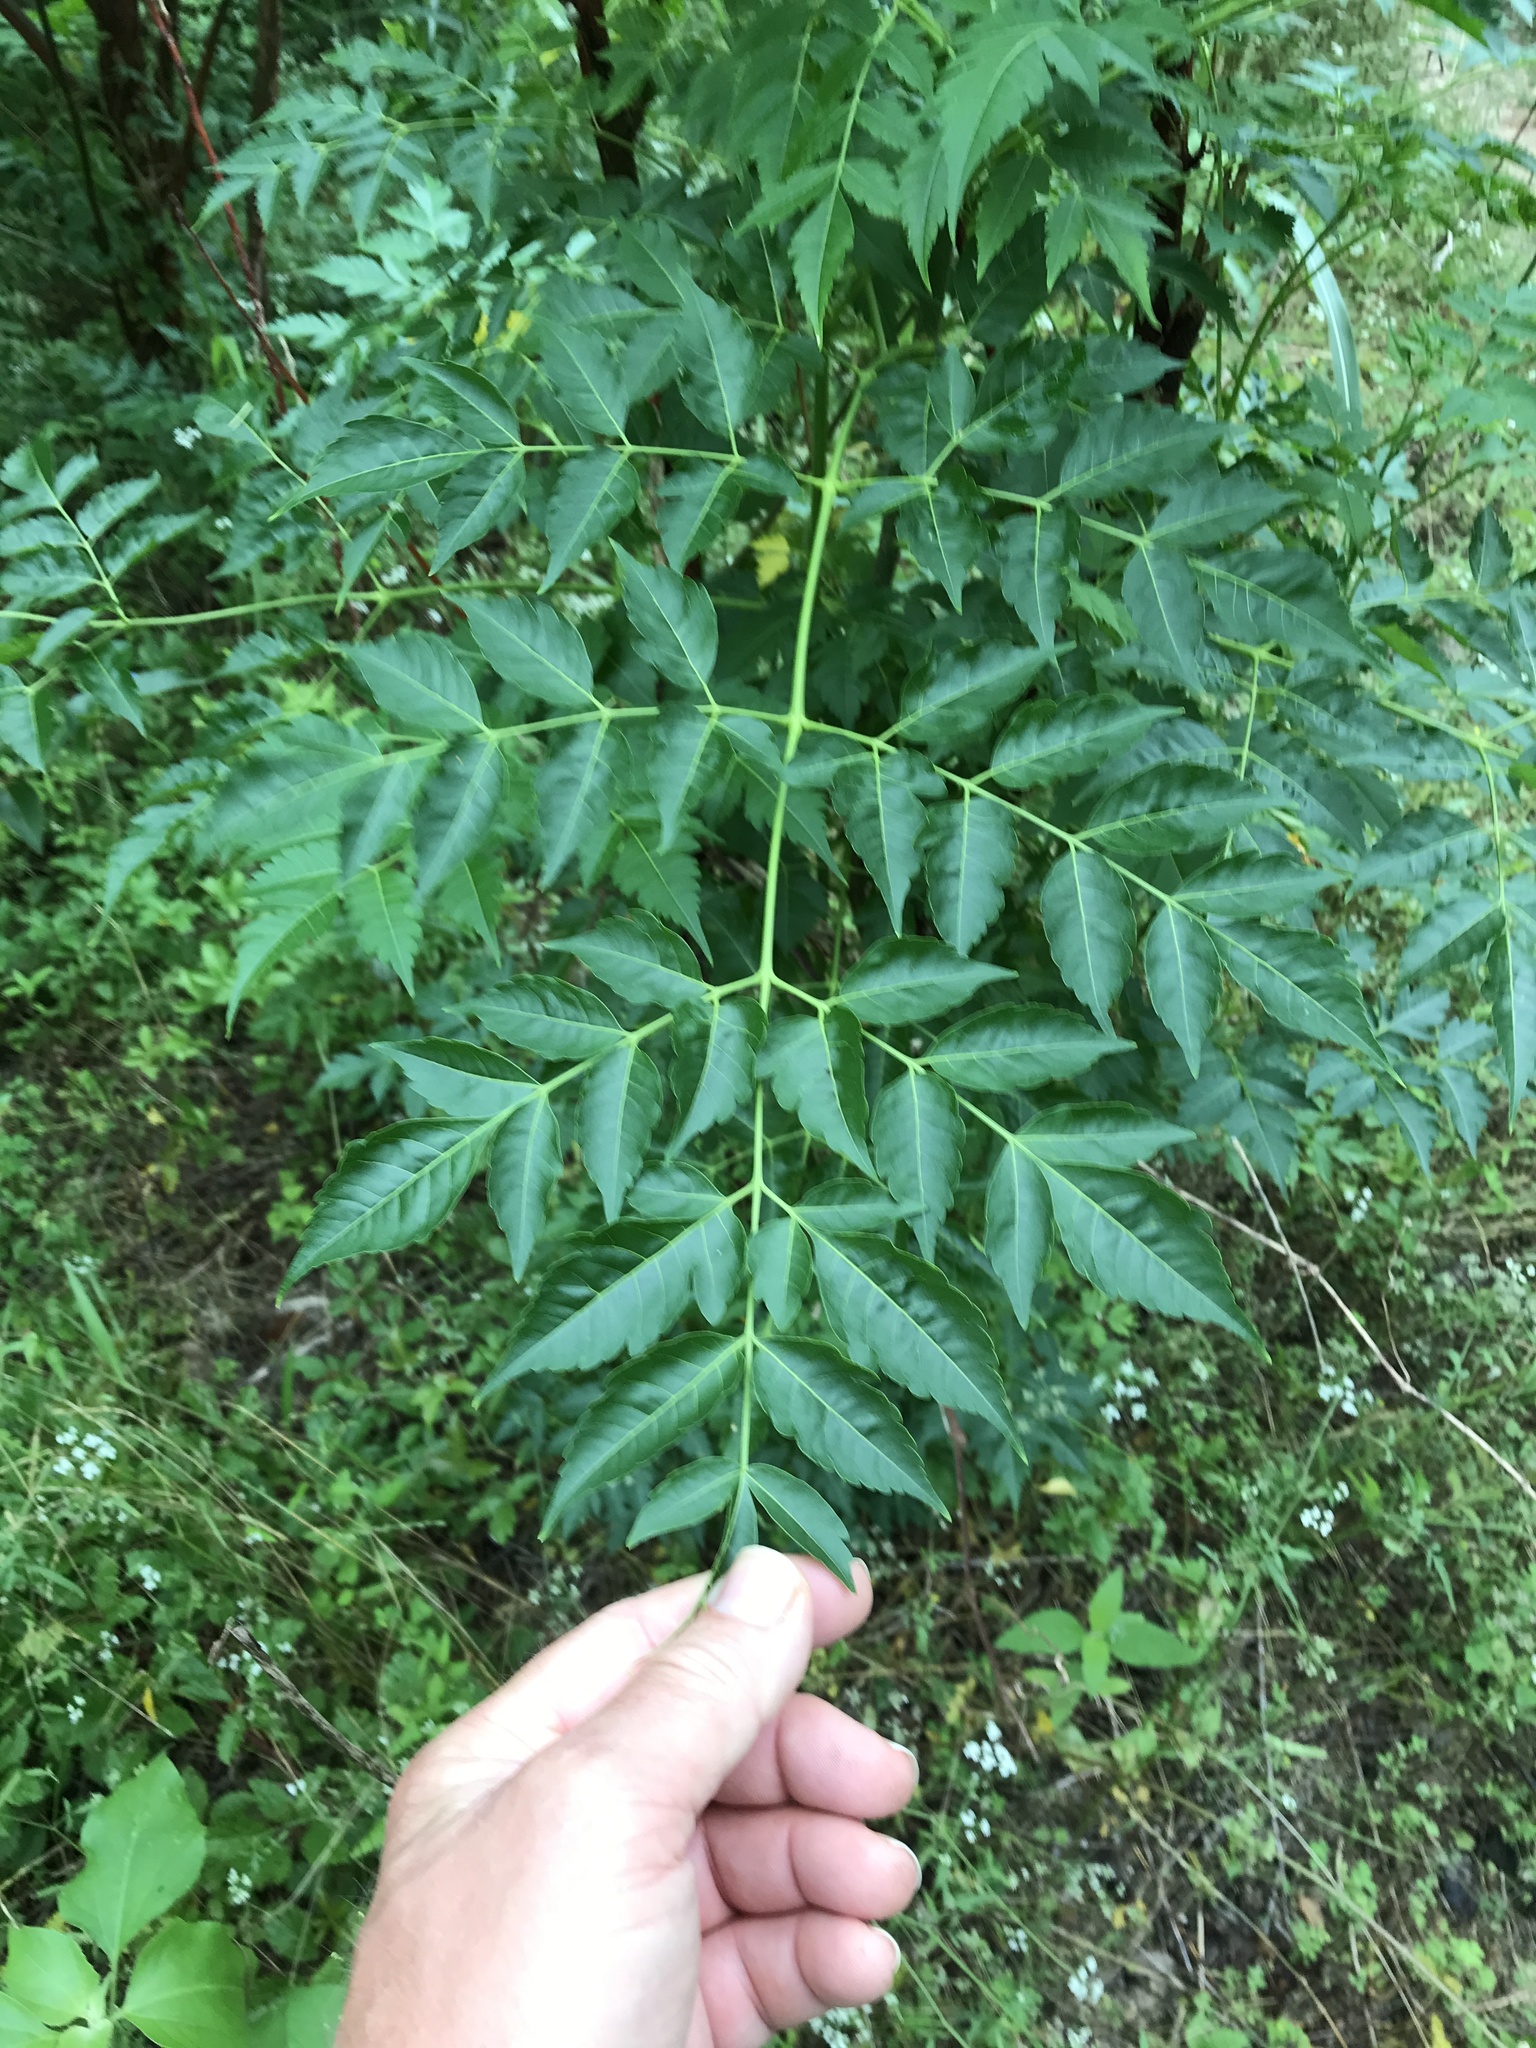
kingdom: Plantae
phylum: Tracheophyta
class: Magnoliopsida
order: Sapindales
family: Meliaceae
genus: Melia
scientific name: Melia azedarach
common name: Chinaberrytree
